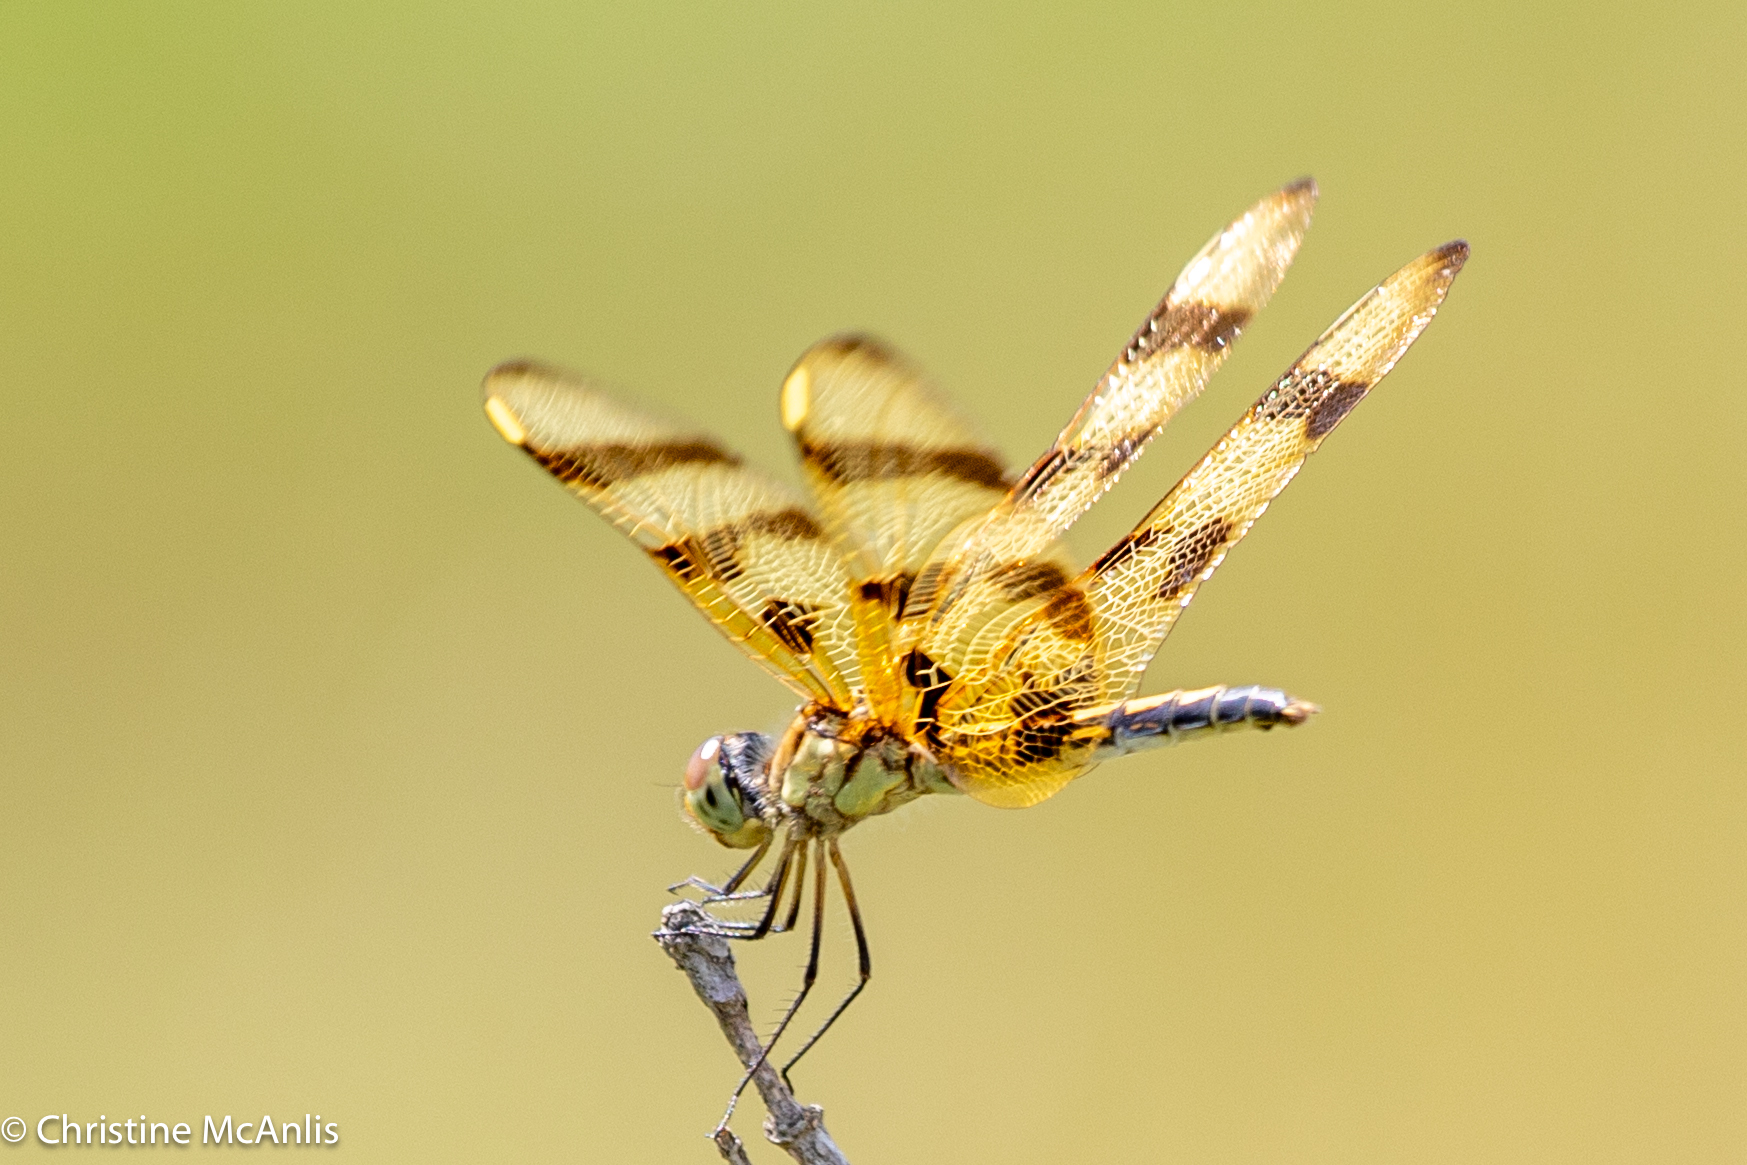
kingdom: Animalia
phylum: Arthropoda
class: Insecta
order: Odonata
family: Libellulidae
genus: Celithemis
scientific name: Celithemis eponina
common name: Halloween pennant
